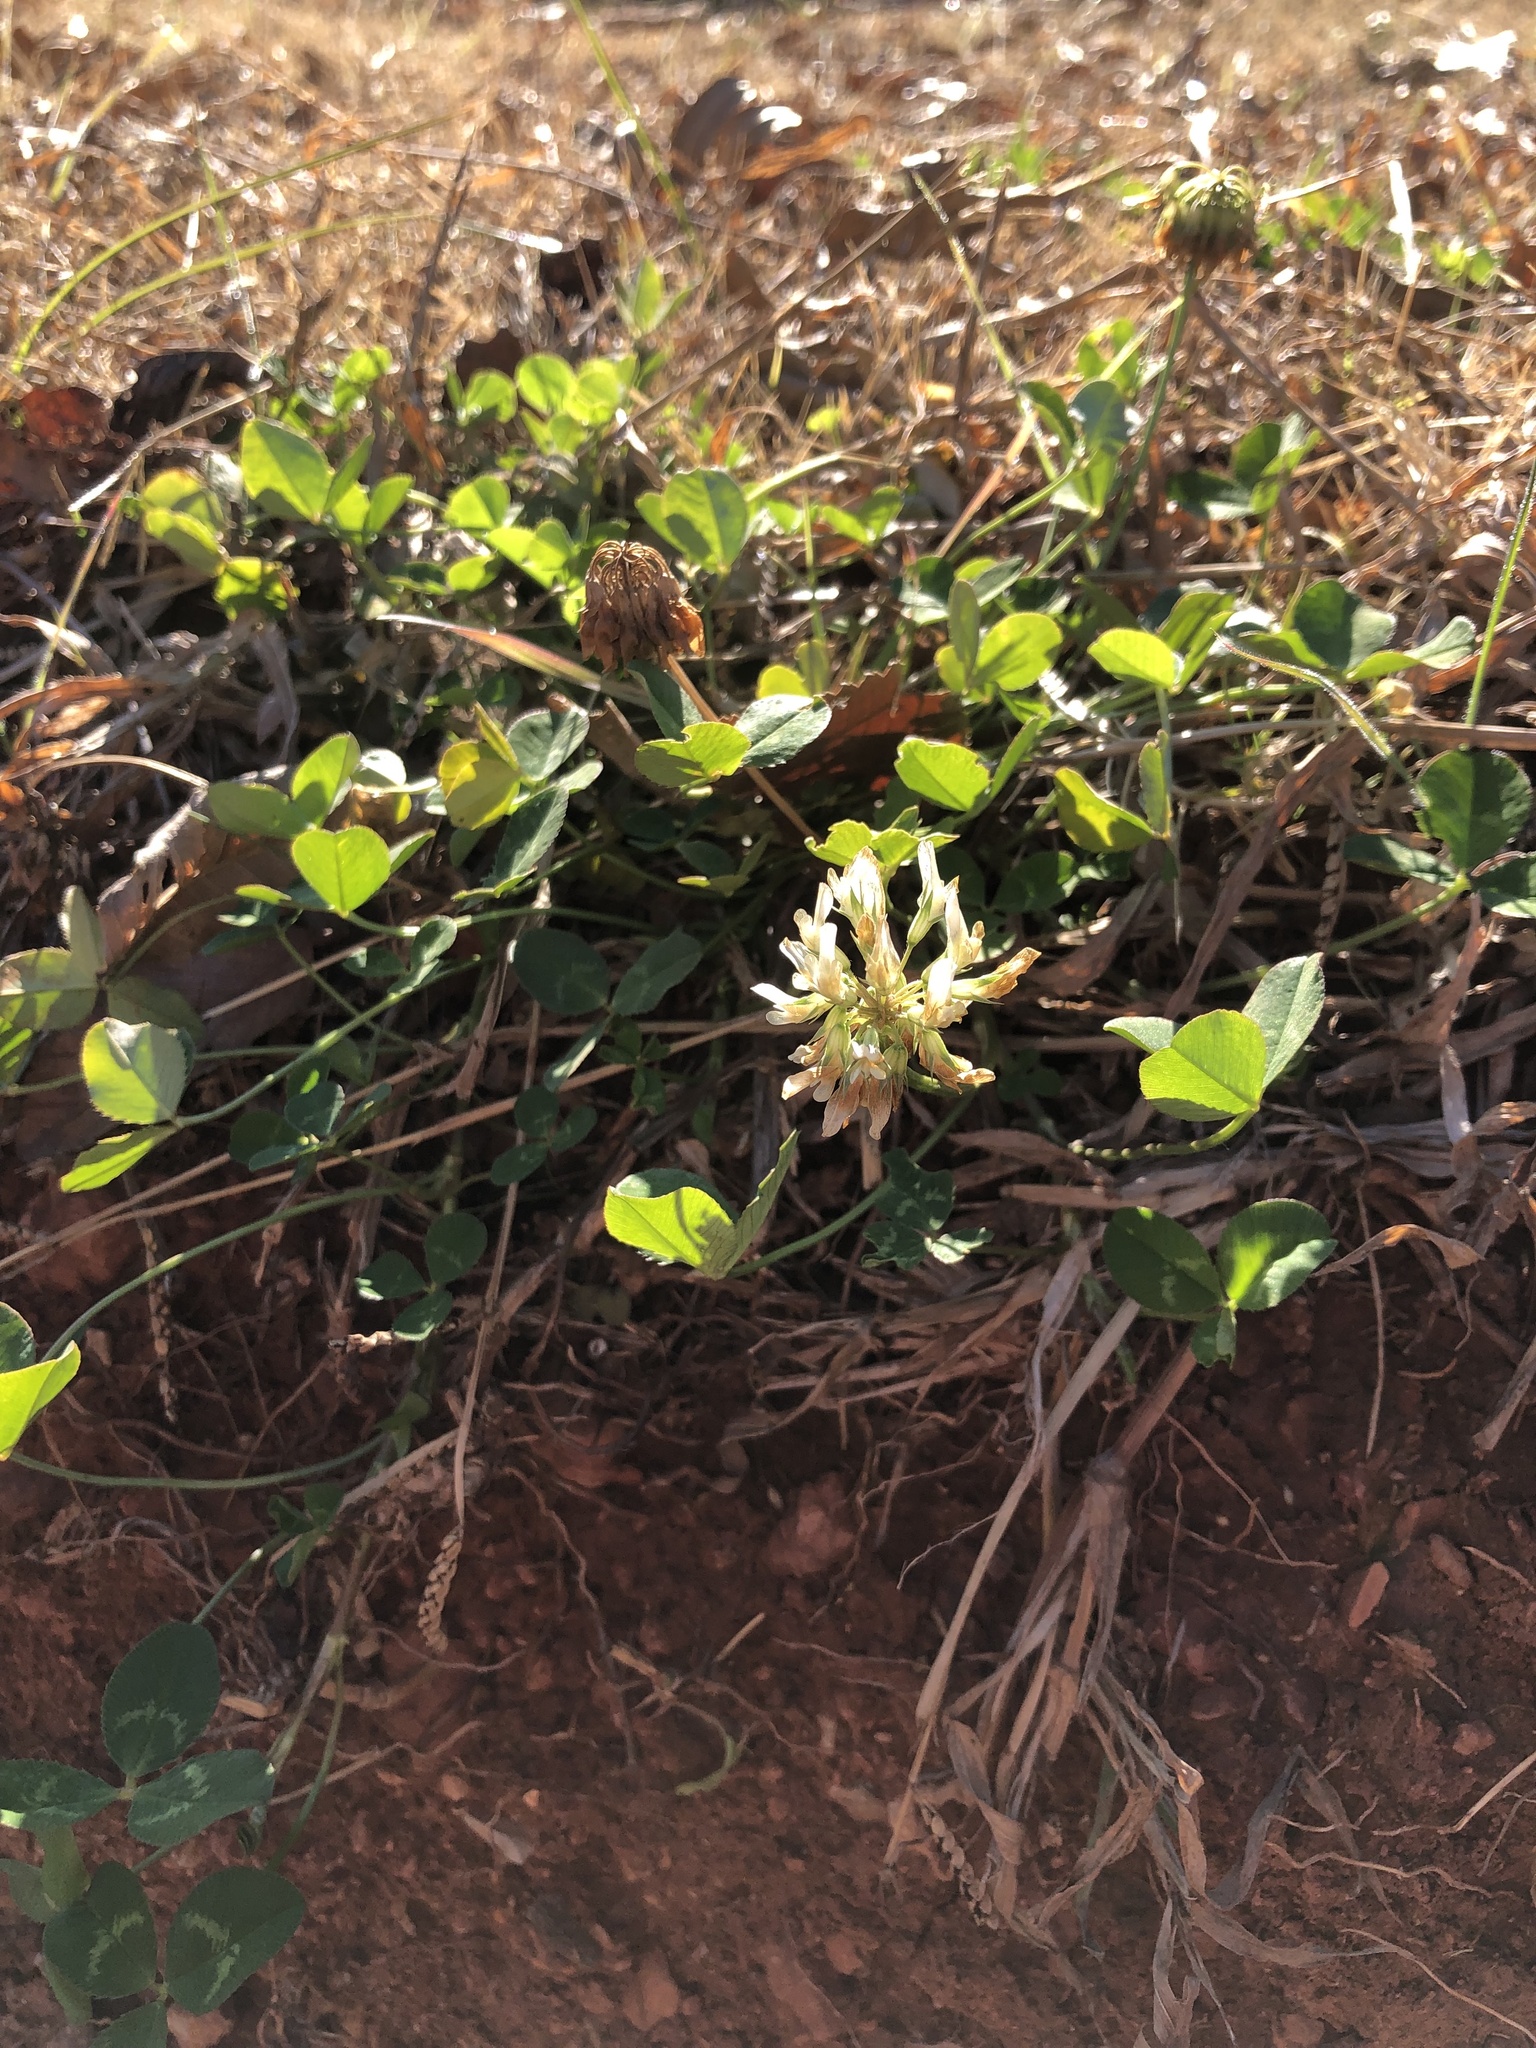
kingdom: Plantae
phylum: Tracheophyta
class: Magnoliopsida
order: Fabales
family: Fabaceae
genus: Trifolium
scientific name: Trifolium repens
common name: White clover
